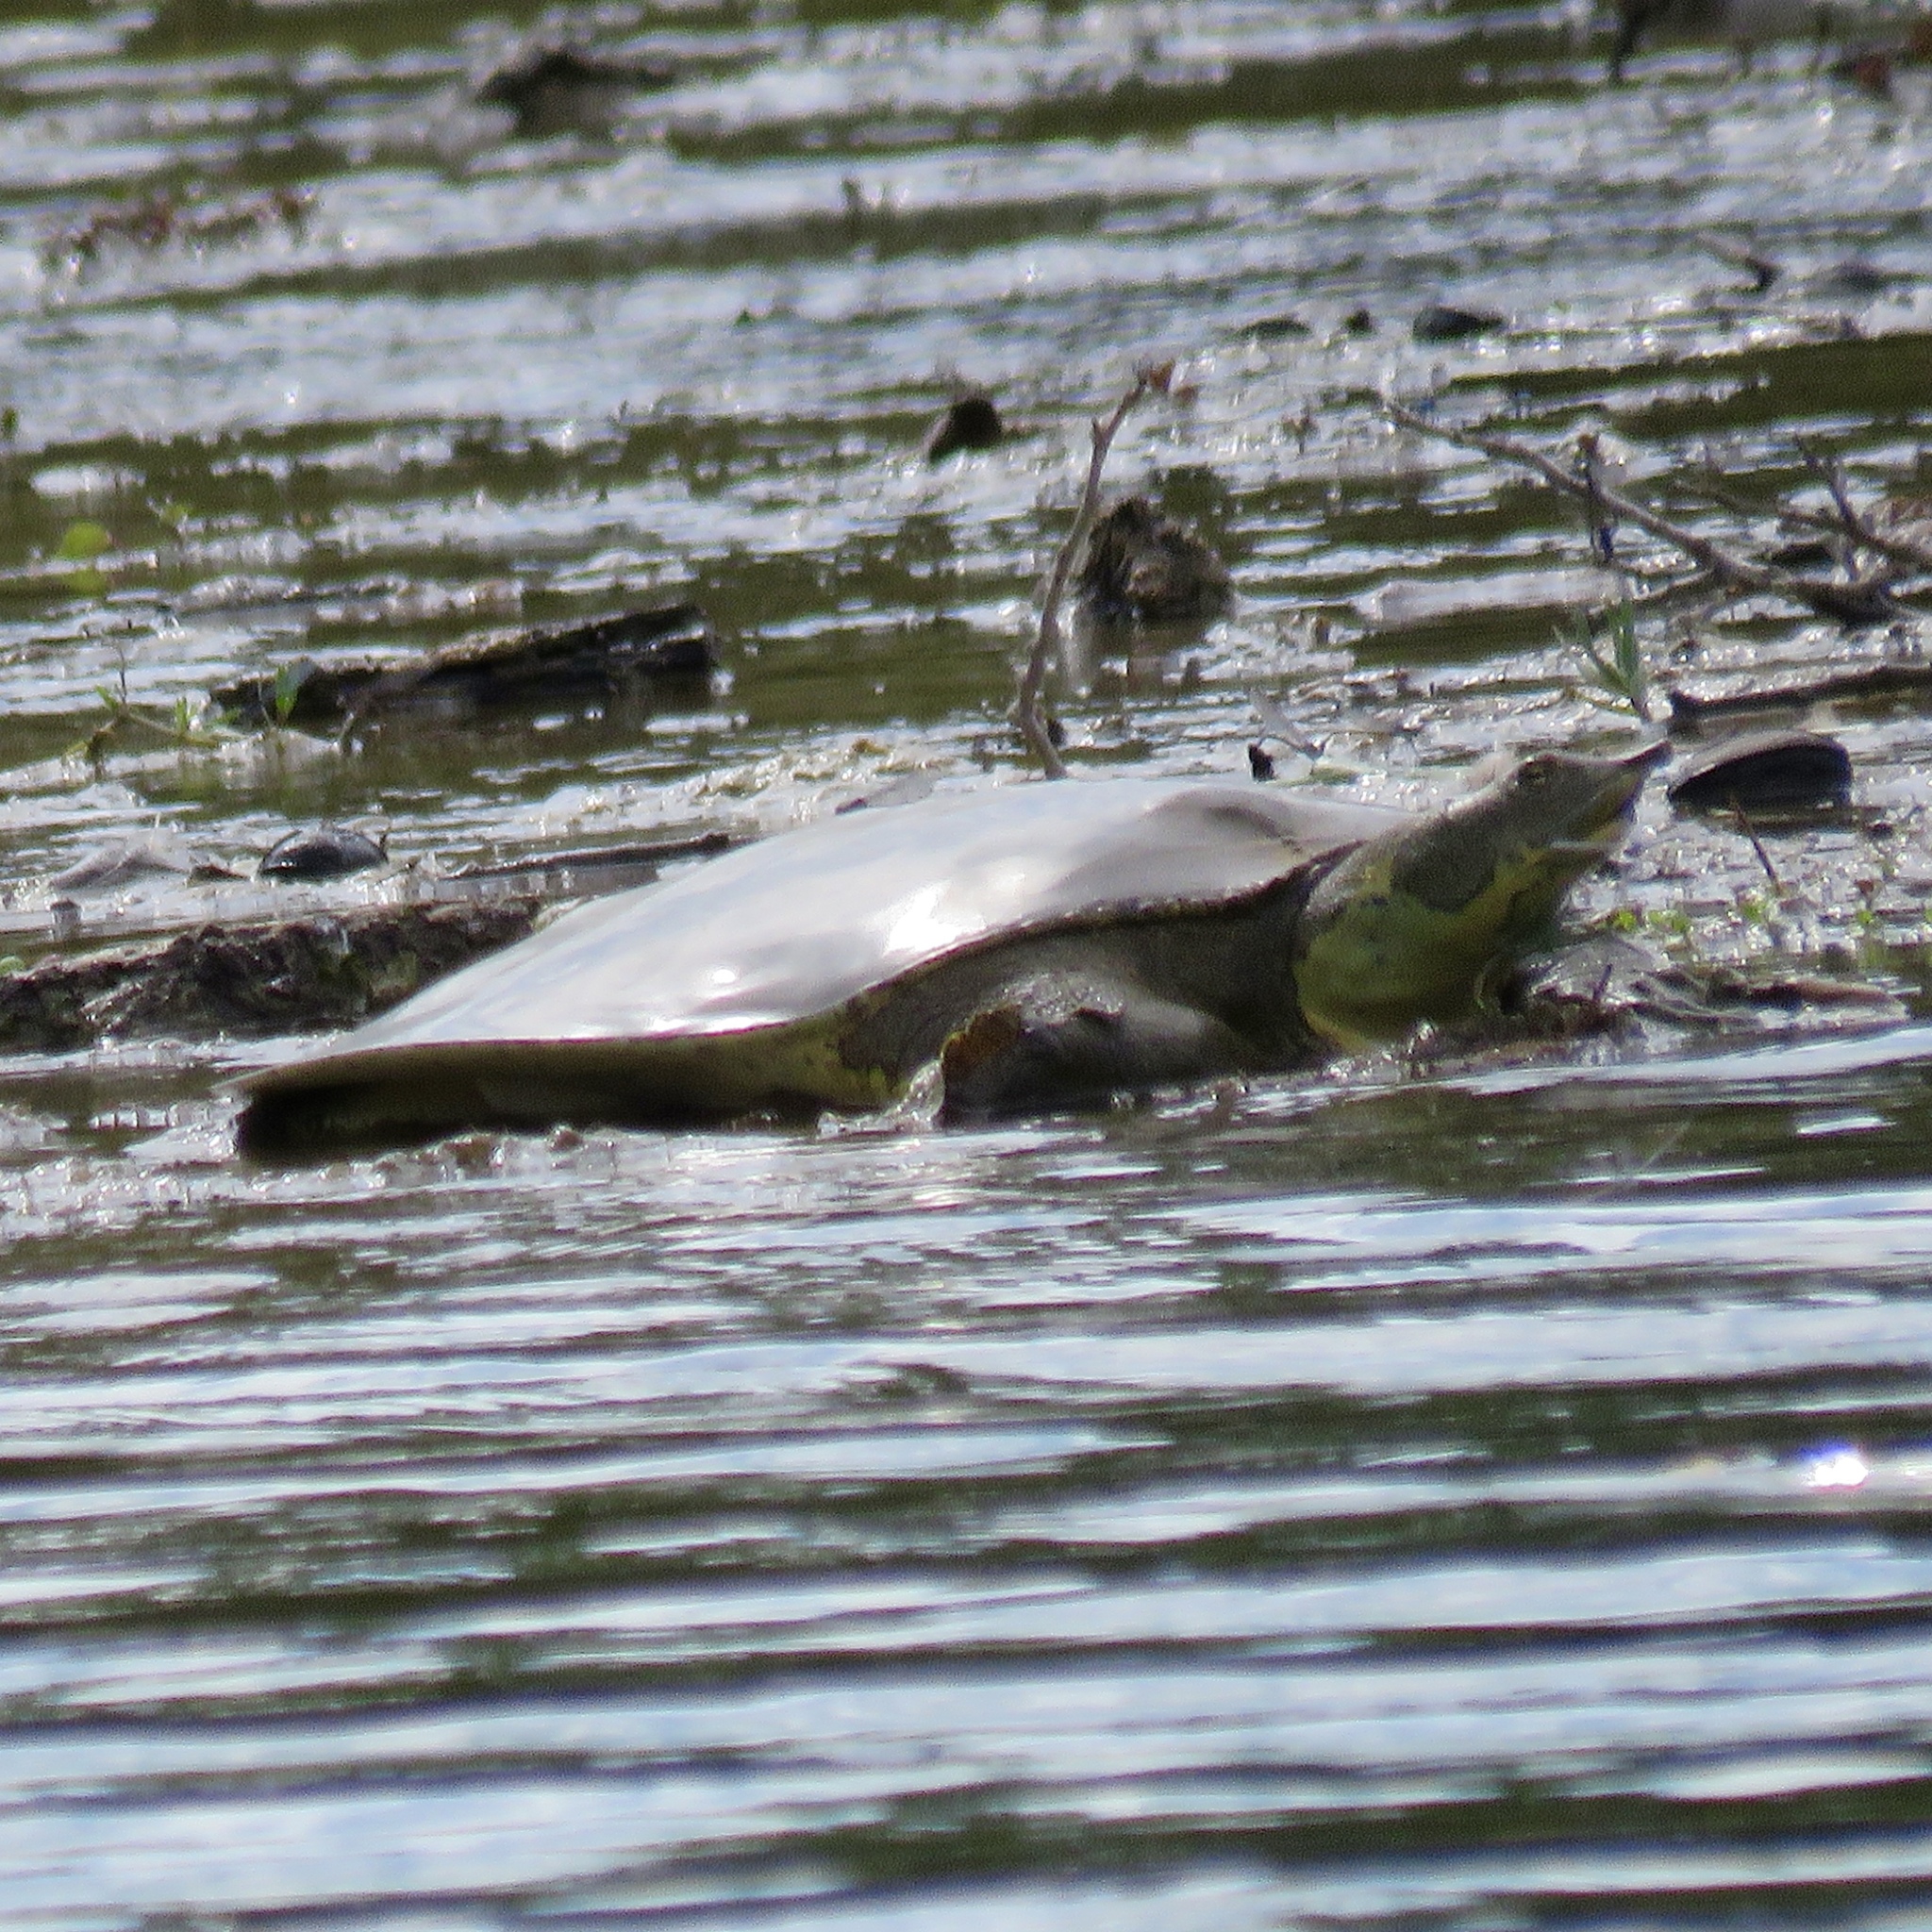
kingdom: Animalia
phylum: Chordata
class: Testudines
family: Trionychidae
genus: Apalone
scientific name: Apalone spinifera
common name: Spiny softshell turtle
